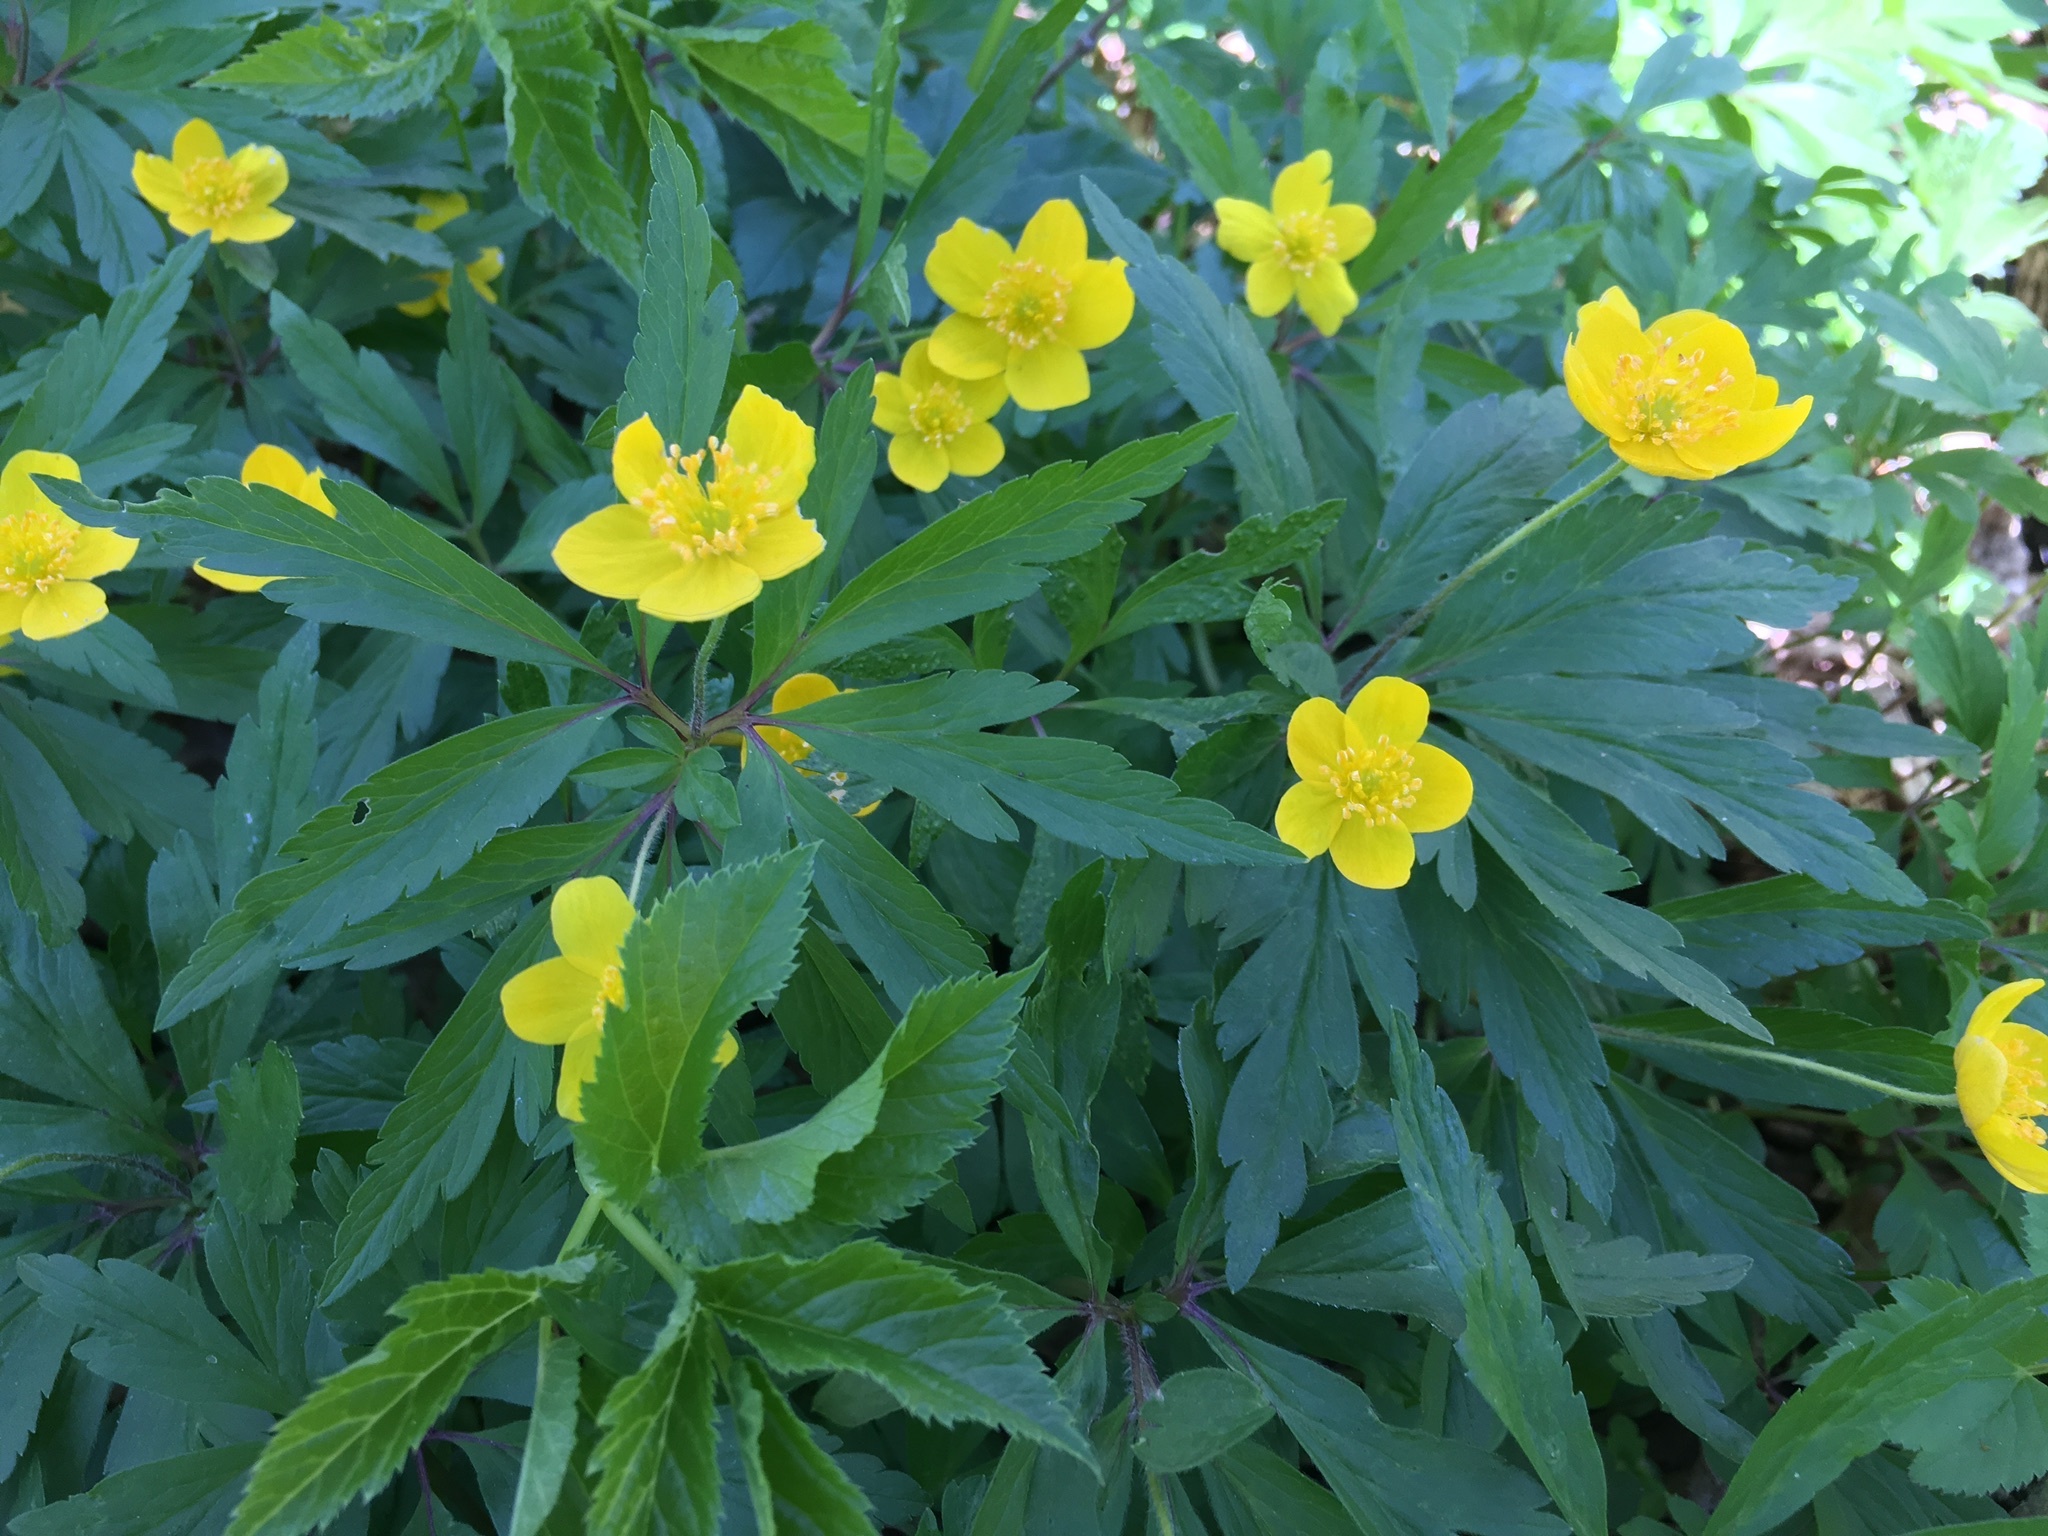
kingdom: Plantae
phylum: Tracheophyta
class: Magnoliopsida
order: Ranunculales
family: Ranunculaceae
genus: Anemone
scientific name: Anemone ranunculoides
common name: Yellow anemone
